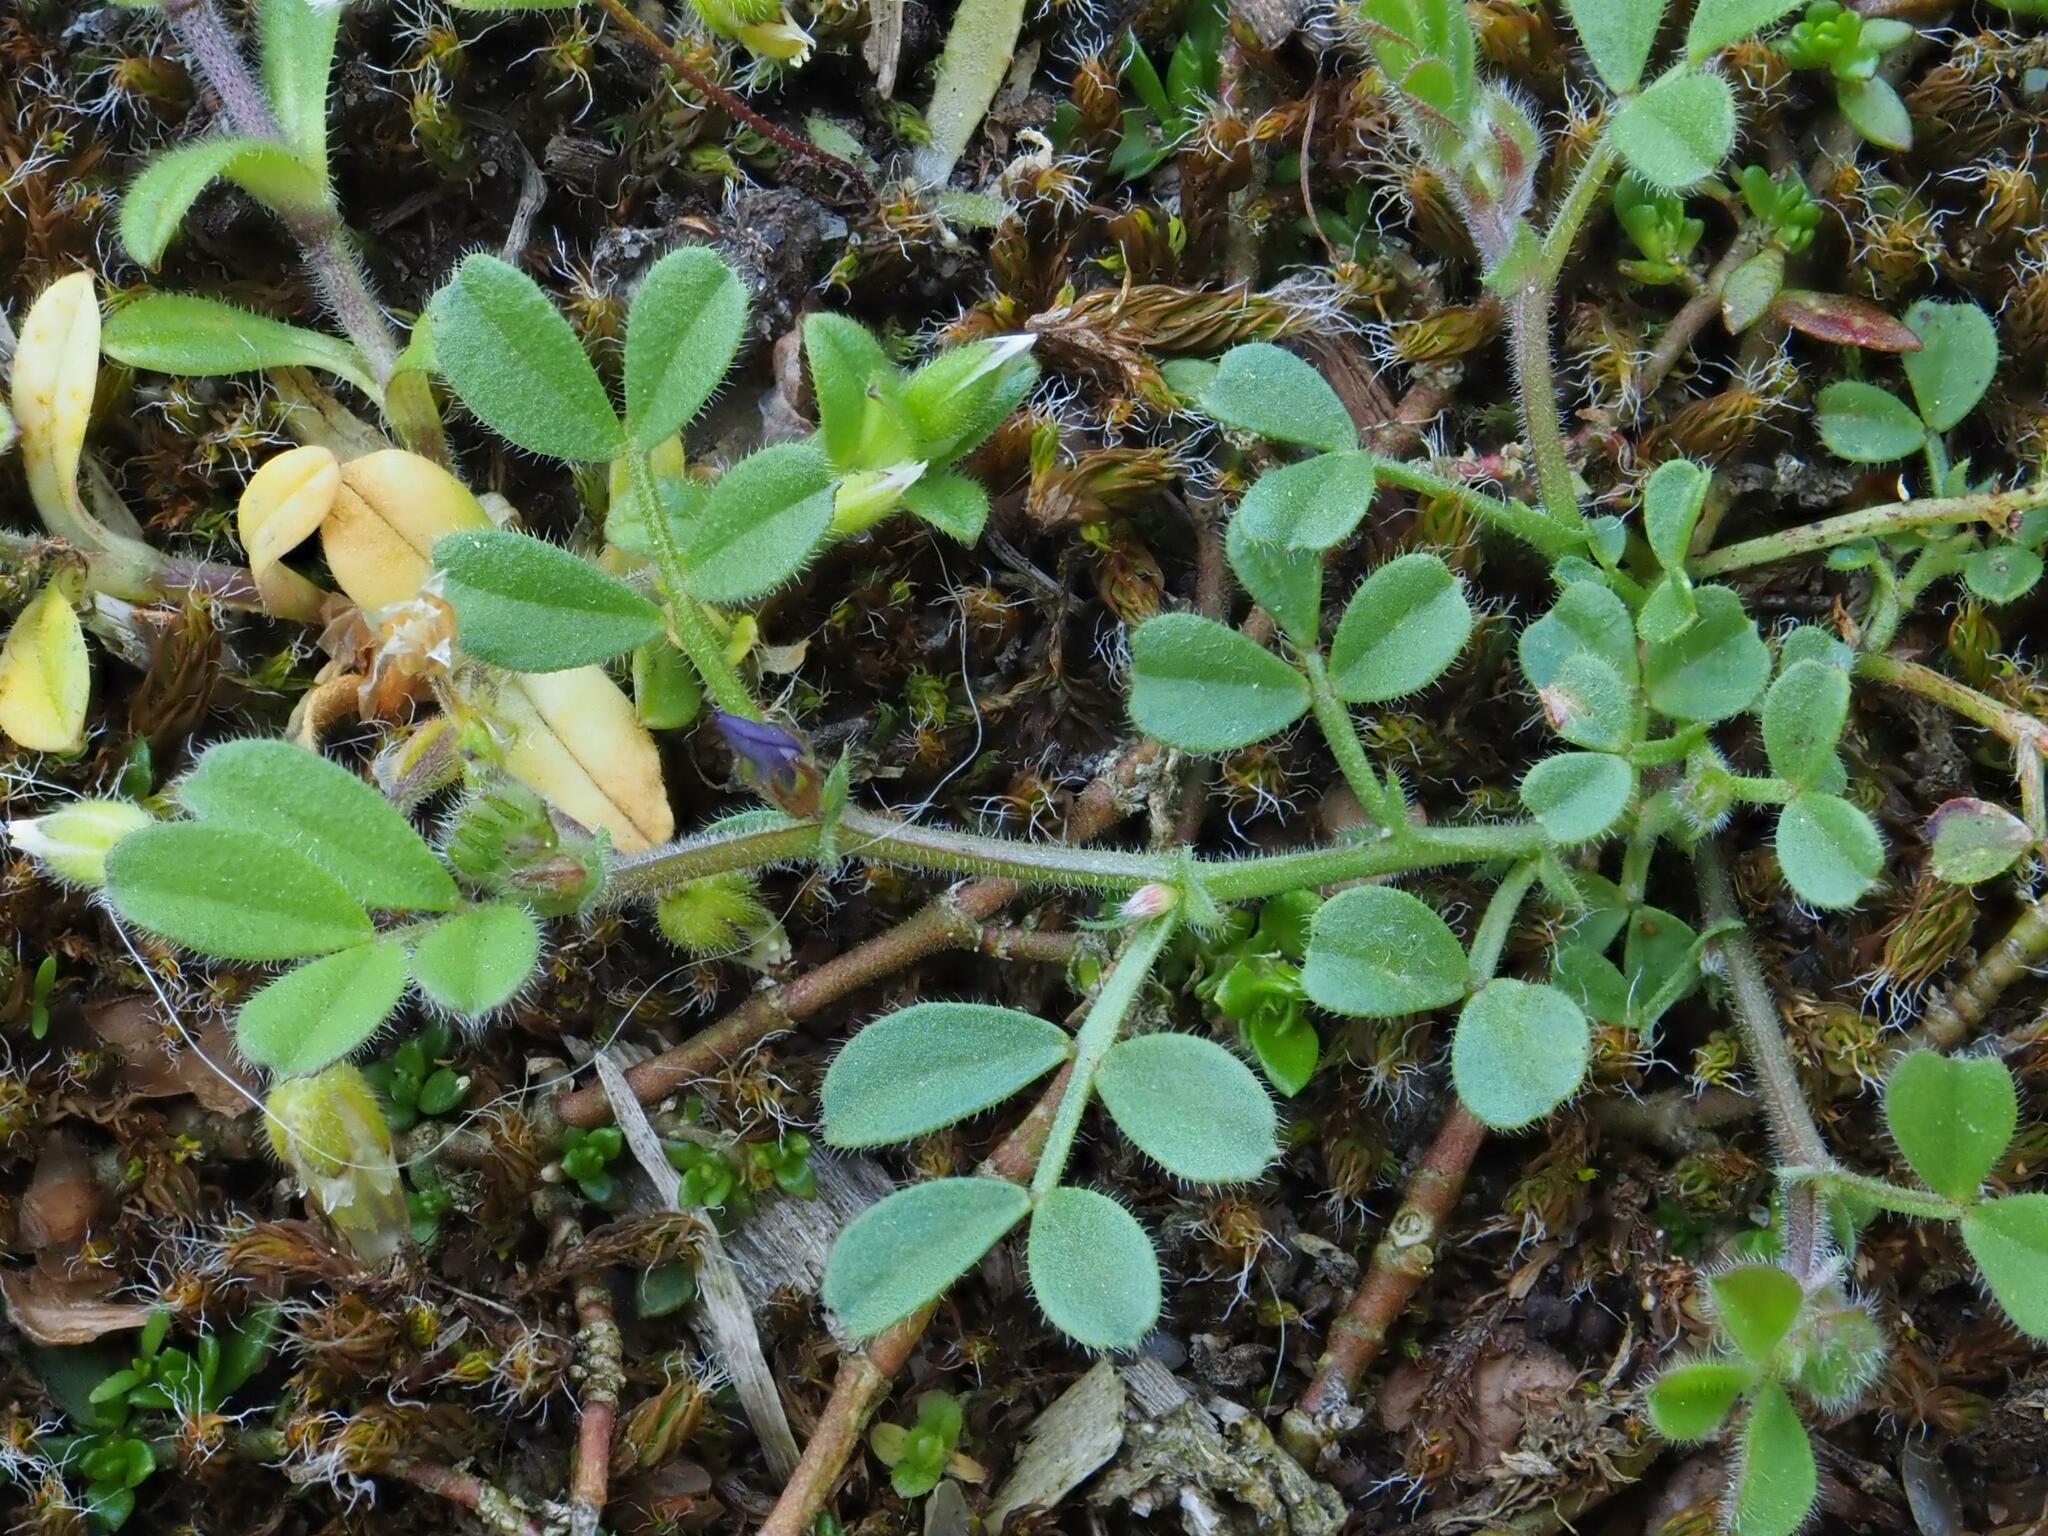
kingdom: Plantae
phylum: Tracheophyta
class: Magnoliopsida
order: Fabales
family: Fabaceae
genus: Vicia
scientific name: Vicia lathyroides
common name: Spring vetch
